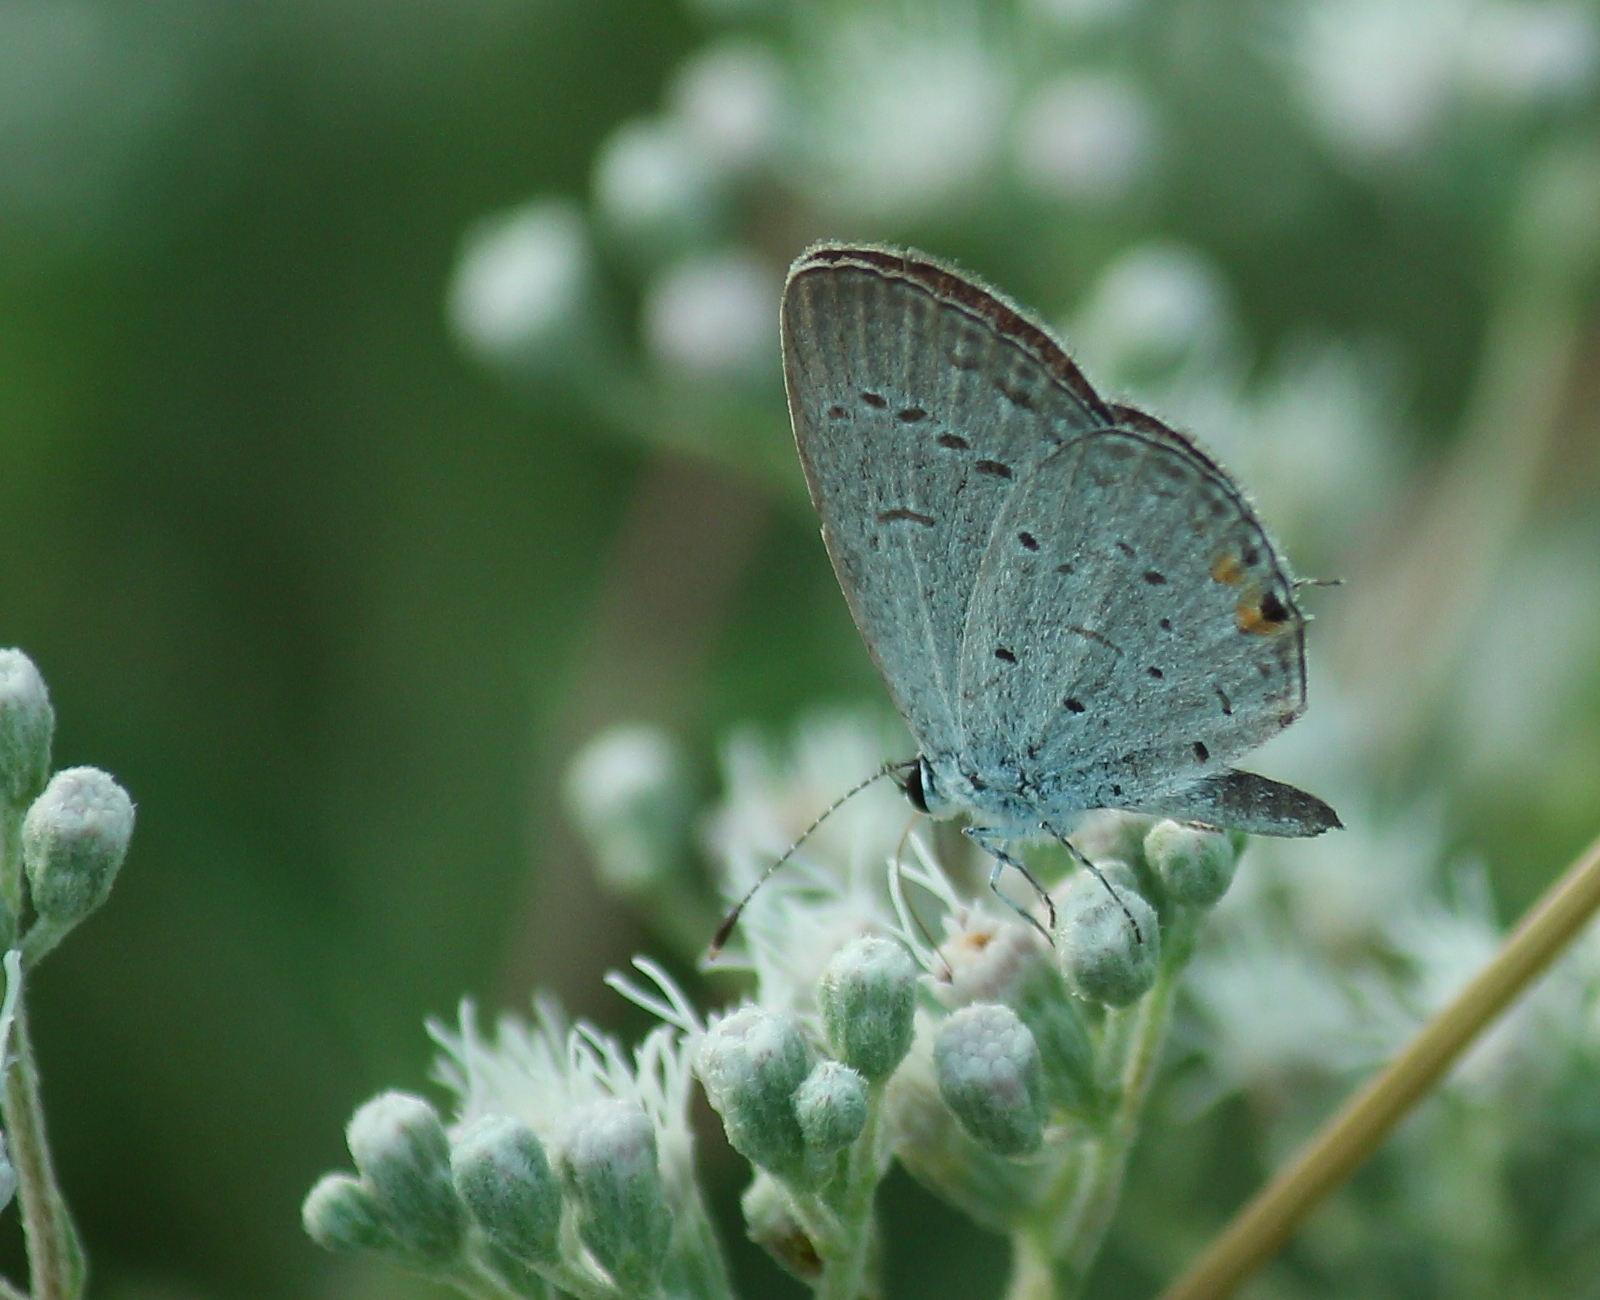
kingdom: Animalia
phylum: Arthropoda
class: Insecta
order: Lepidoptera
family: Lycaenidae
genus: Elkalyce
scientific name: Elkalyce comyntas
